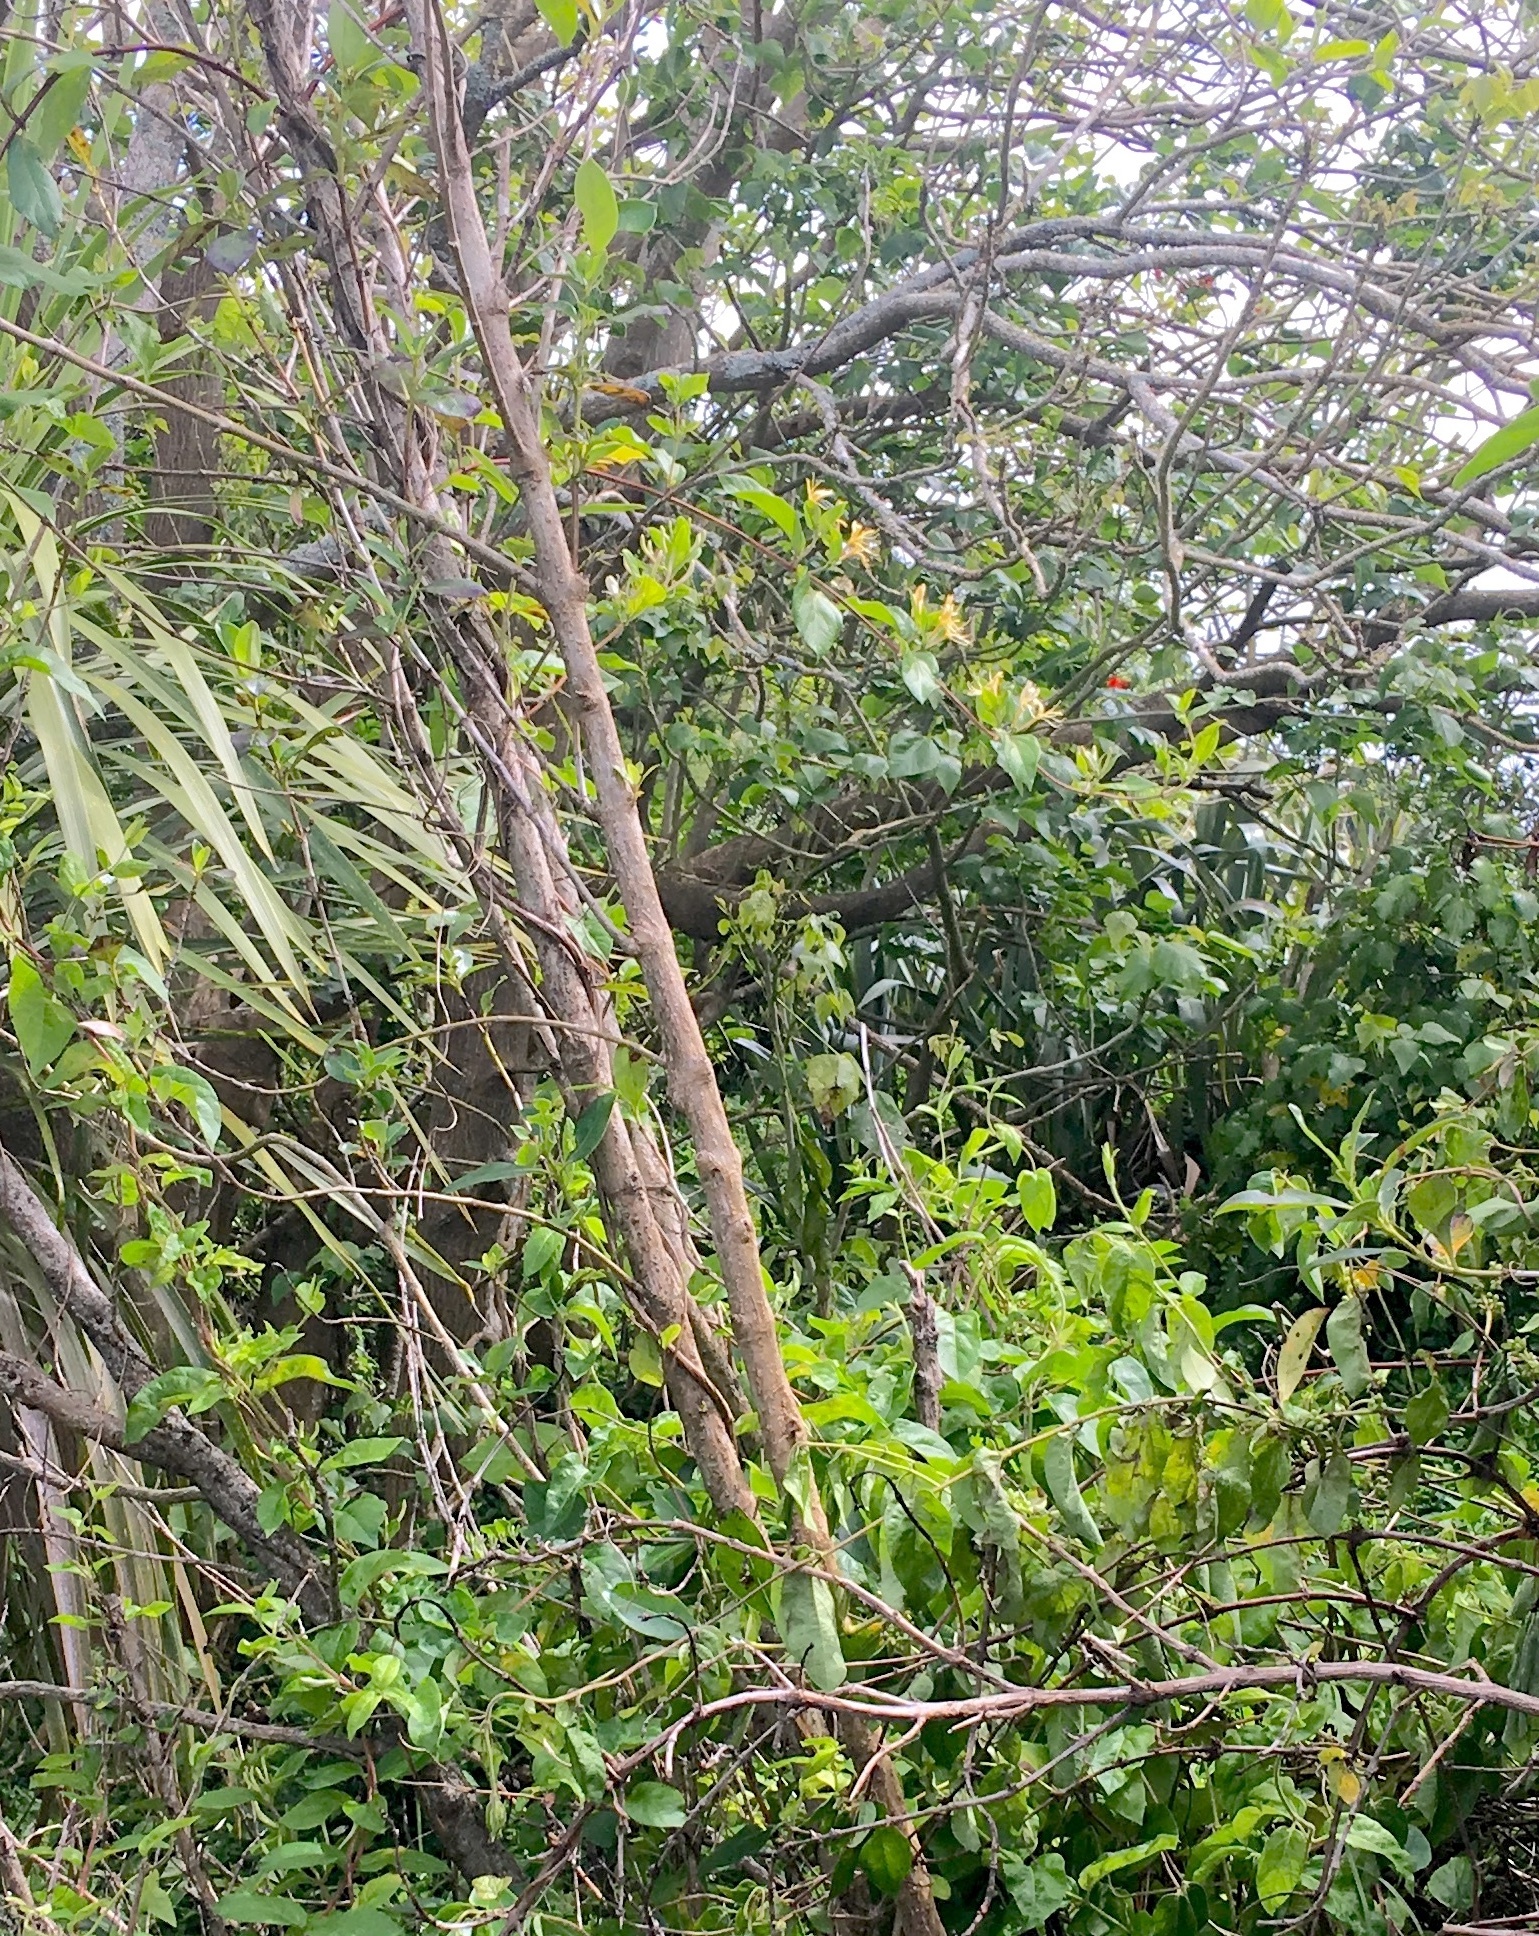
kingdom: Plantae
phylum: Tracheophyta
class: Magnoliopsida
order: Dipsacales
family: Caprifoliaceae
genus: Lonicera
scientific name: Lonicera japonica
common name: Japanese honeysuckle
